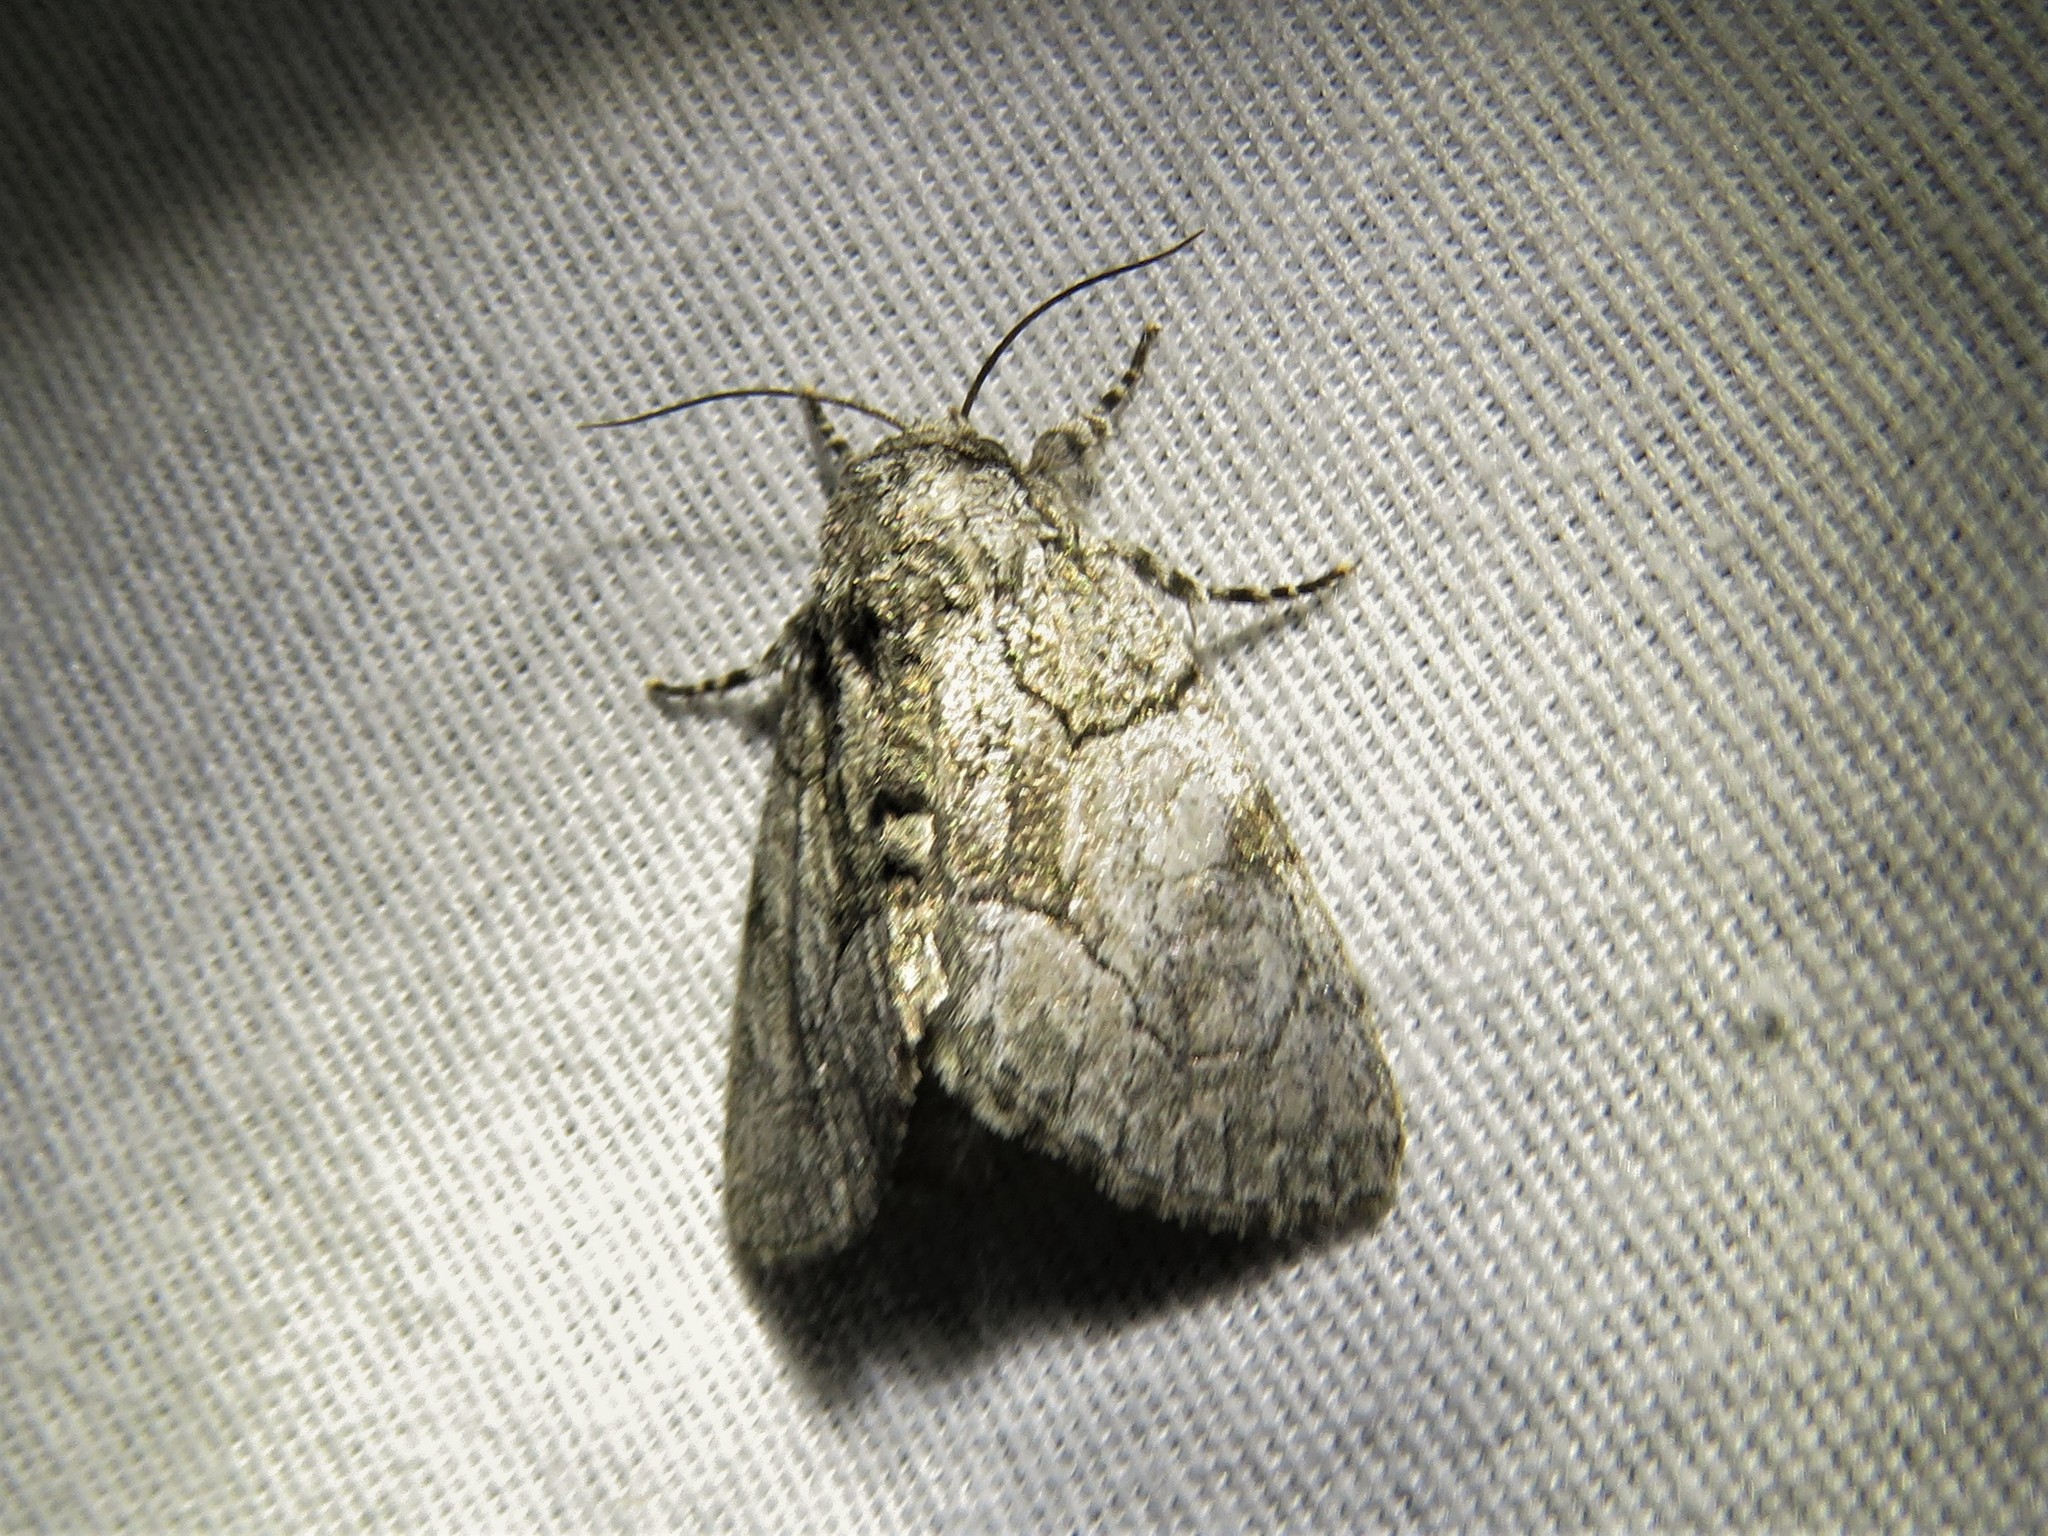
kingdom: Animalia
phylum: Arthropoda
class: Insecta
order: Lepidoptera
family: Noctuidae
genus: Raphia
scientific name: Raphia frater
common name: Brother
